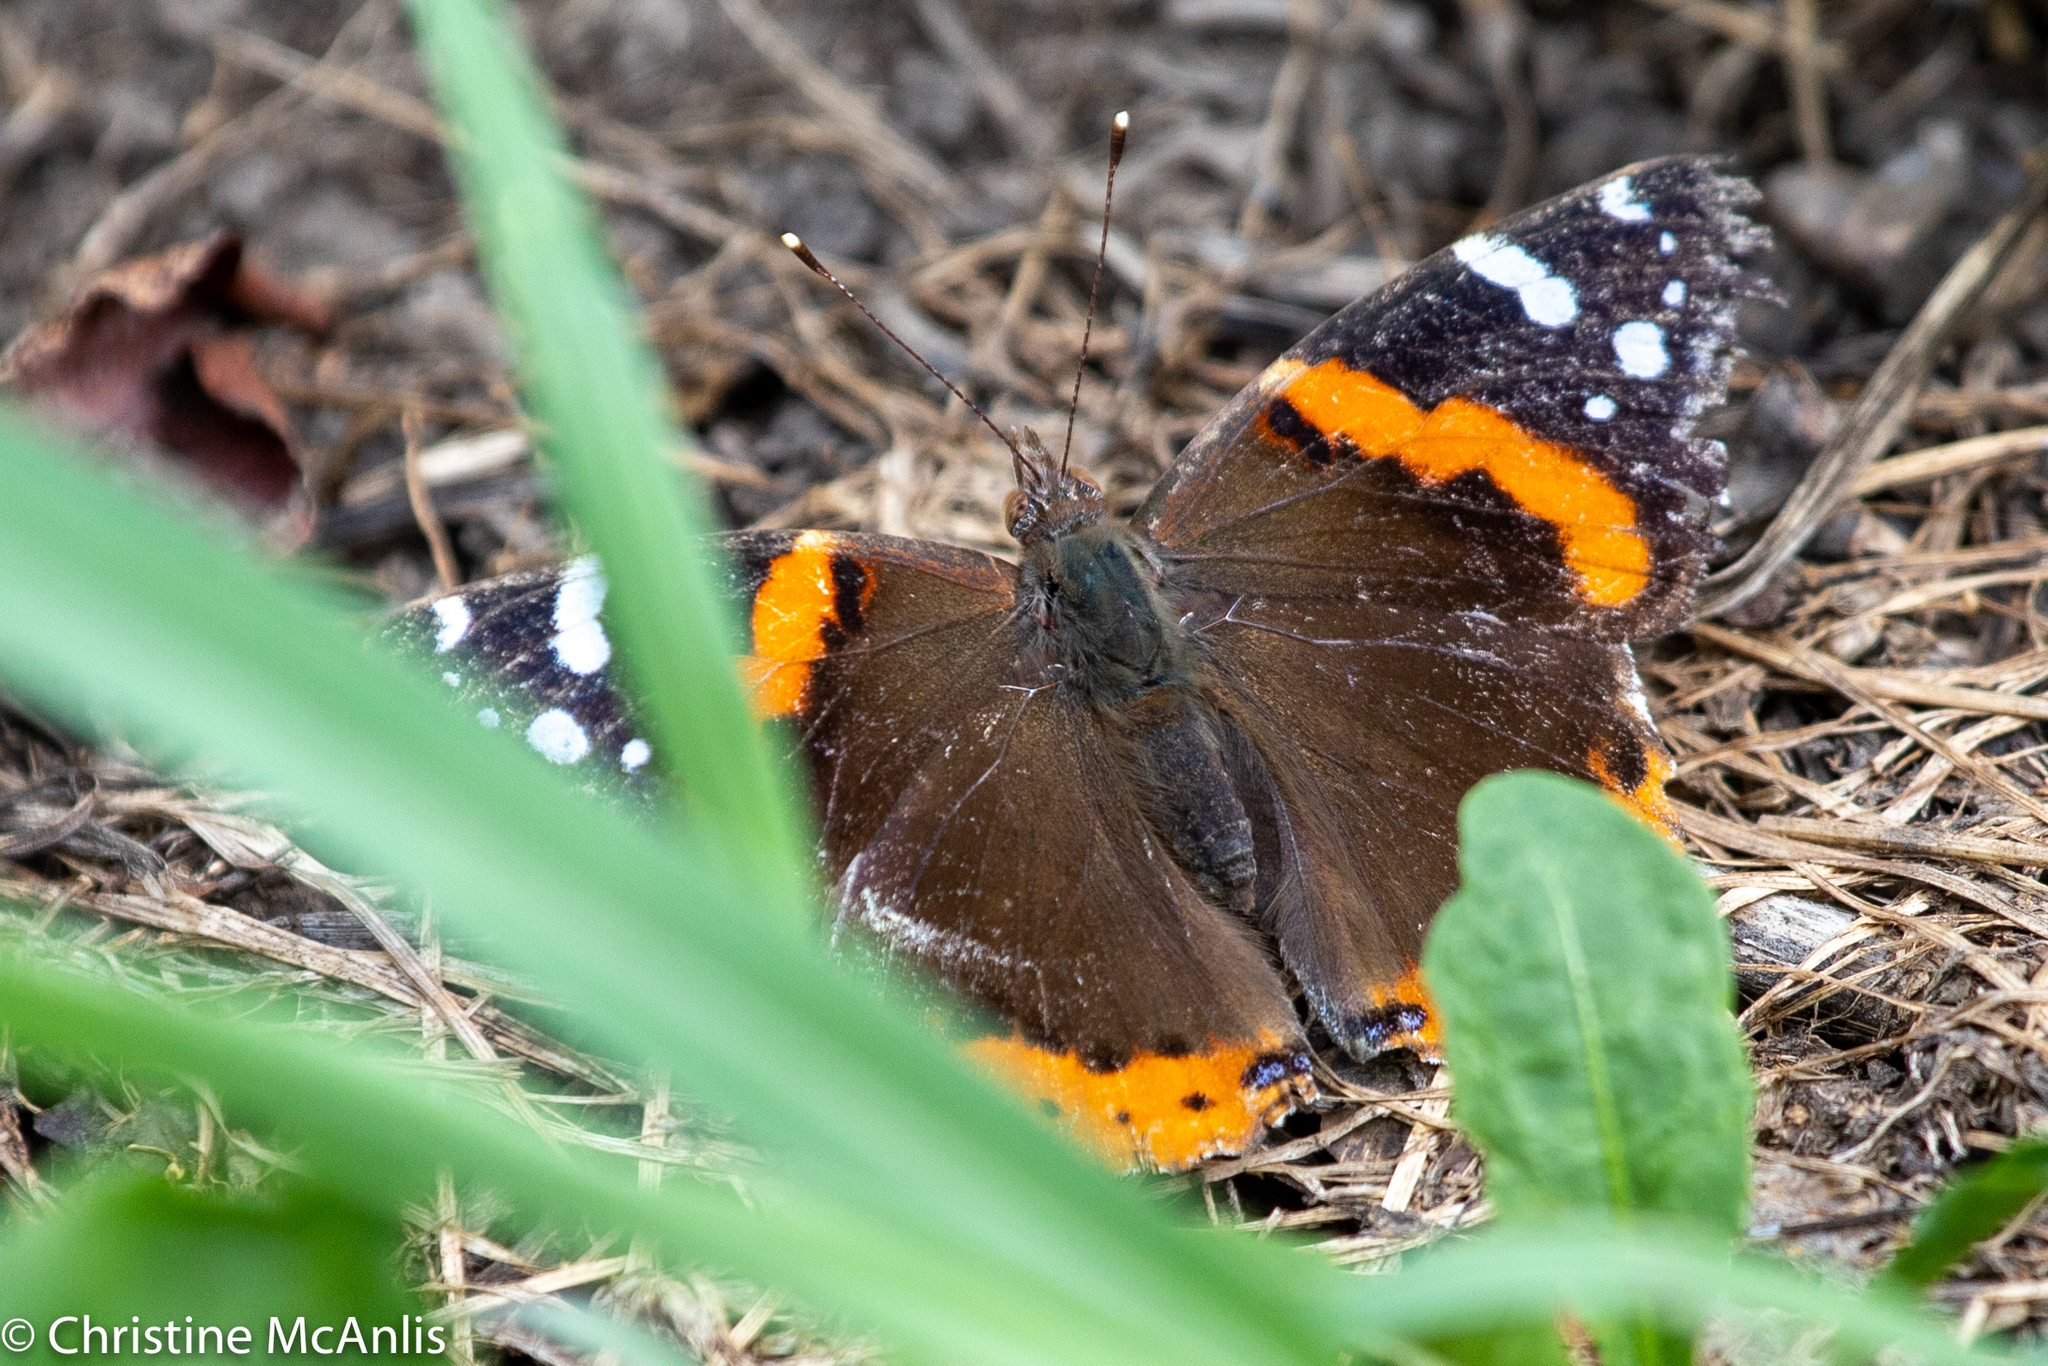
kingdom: Animalia
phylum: Arthropoda
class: Insecta
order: Lepidoptera
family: Nymphalidae
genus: Vanessa
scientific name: Vanessa atalanta
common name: Red admiral
